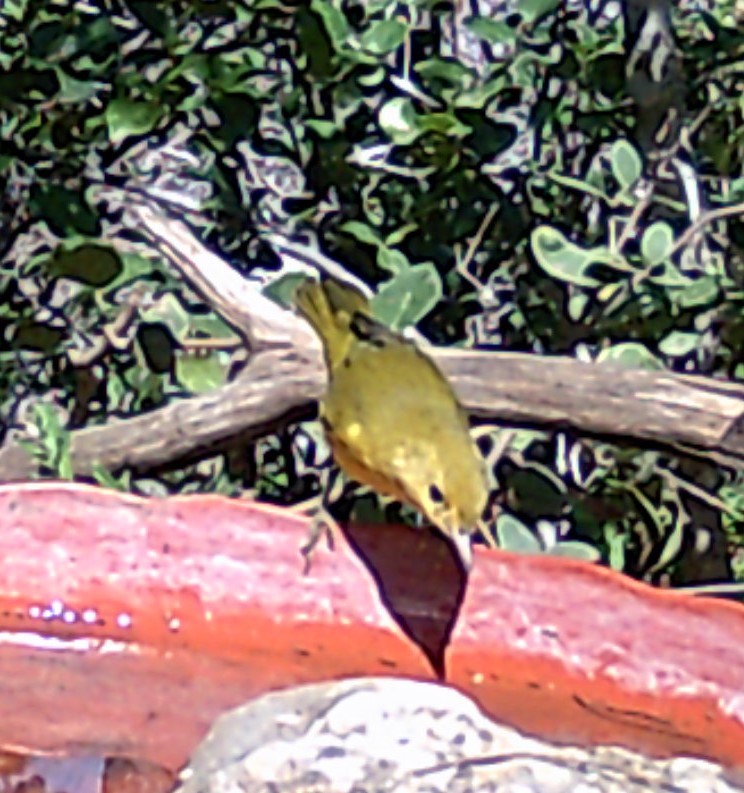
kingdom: Animalia
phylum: Chordata
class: Aves
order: Passeriformes
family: Parulidae
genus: Setophaga
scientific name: Setophaga petechia
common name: Yellow warbler
